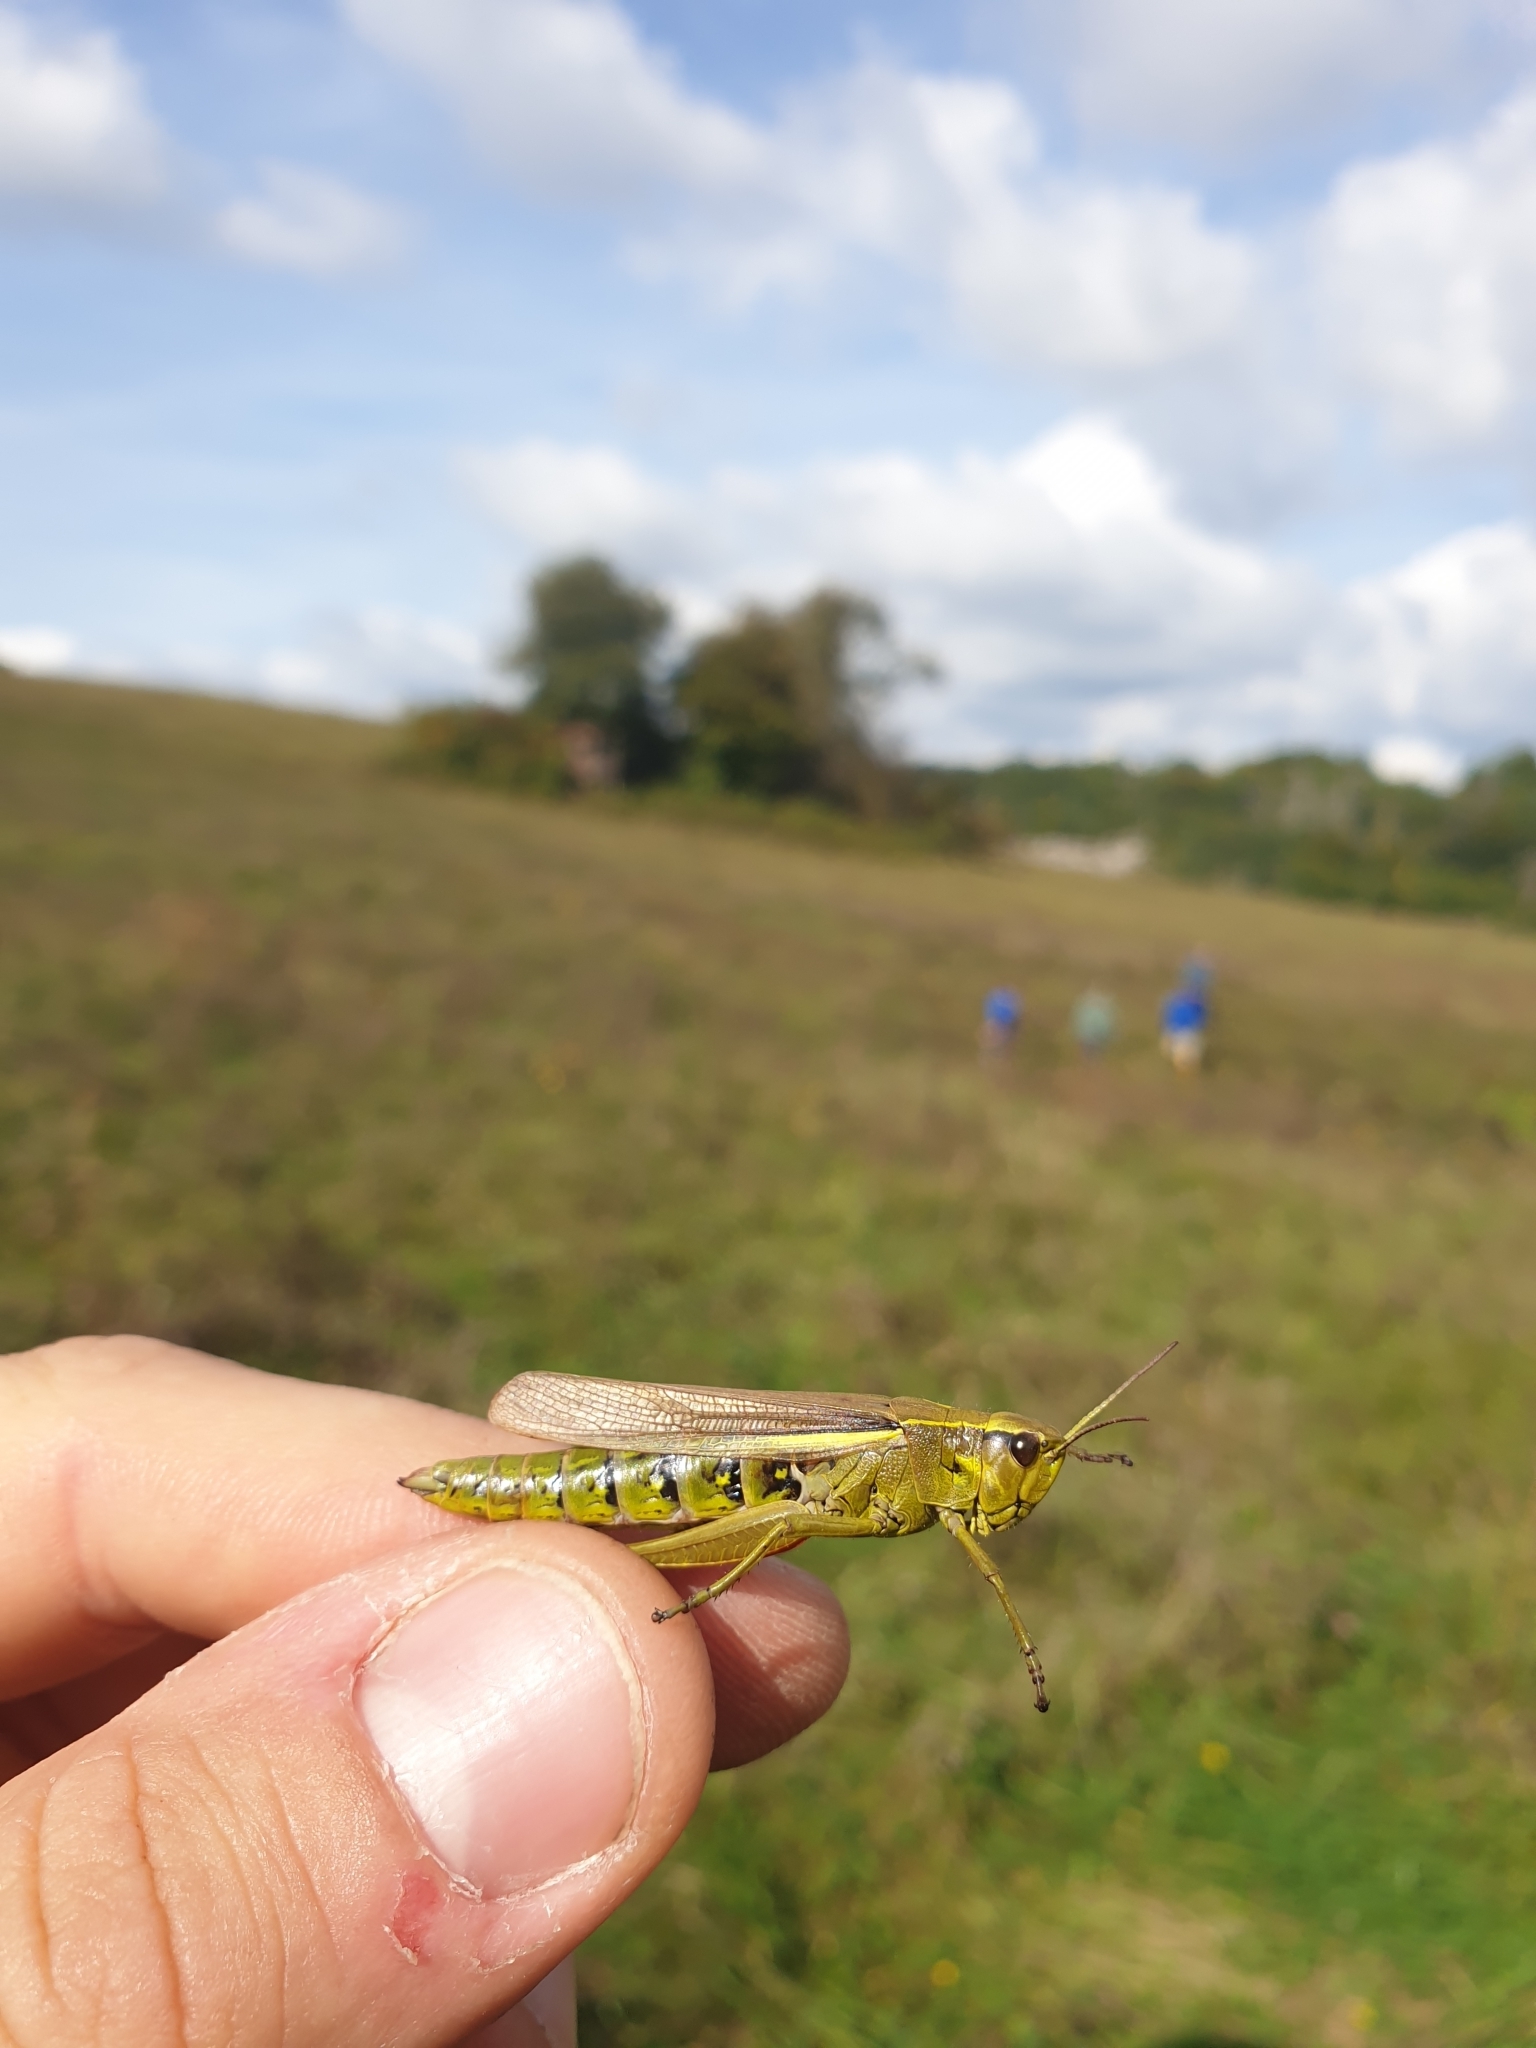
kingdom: Animalia
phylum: Arthropoda
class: Insecta
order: Orthoptera
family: Acrididae
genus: Stethophyma
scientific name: Stethophyma grossum
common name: Large marsh grasshopper
